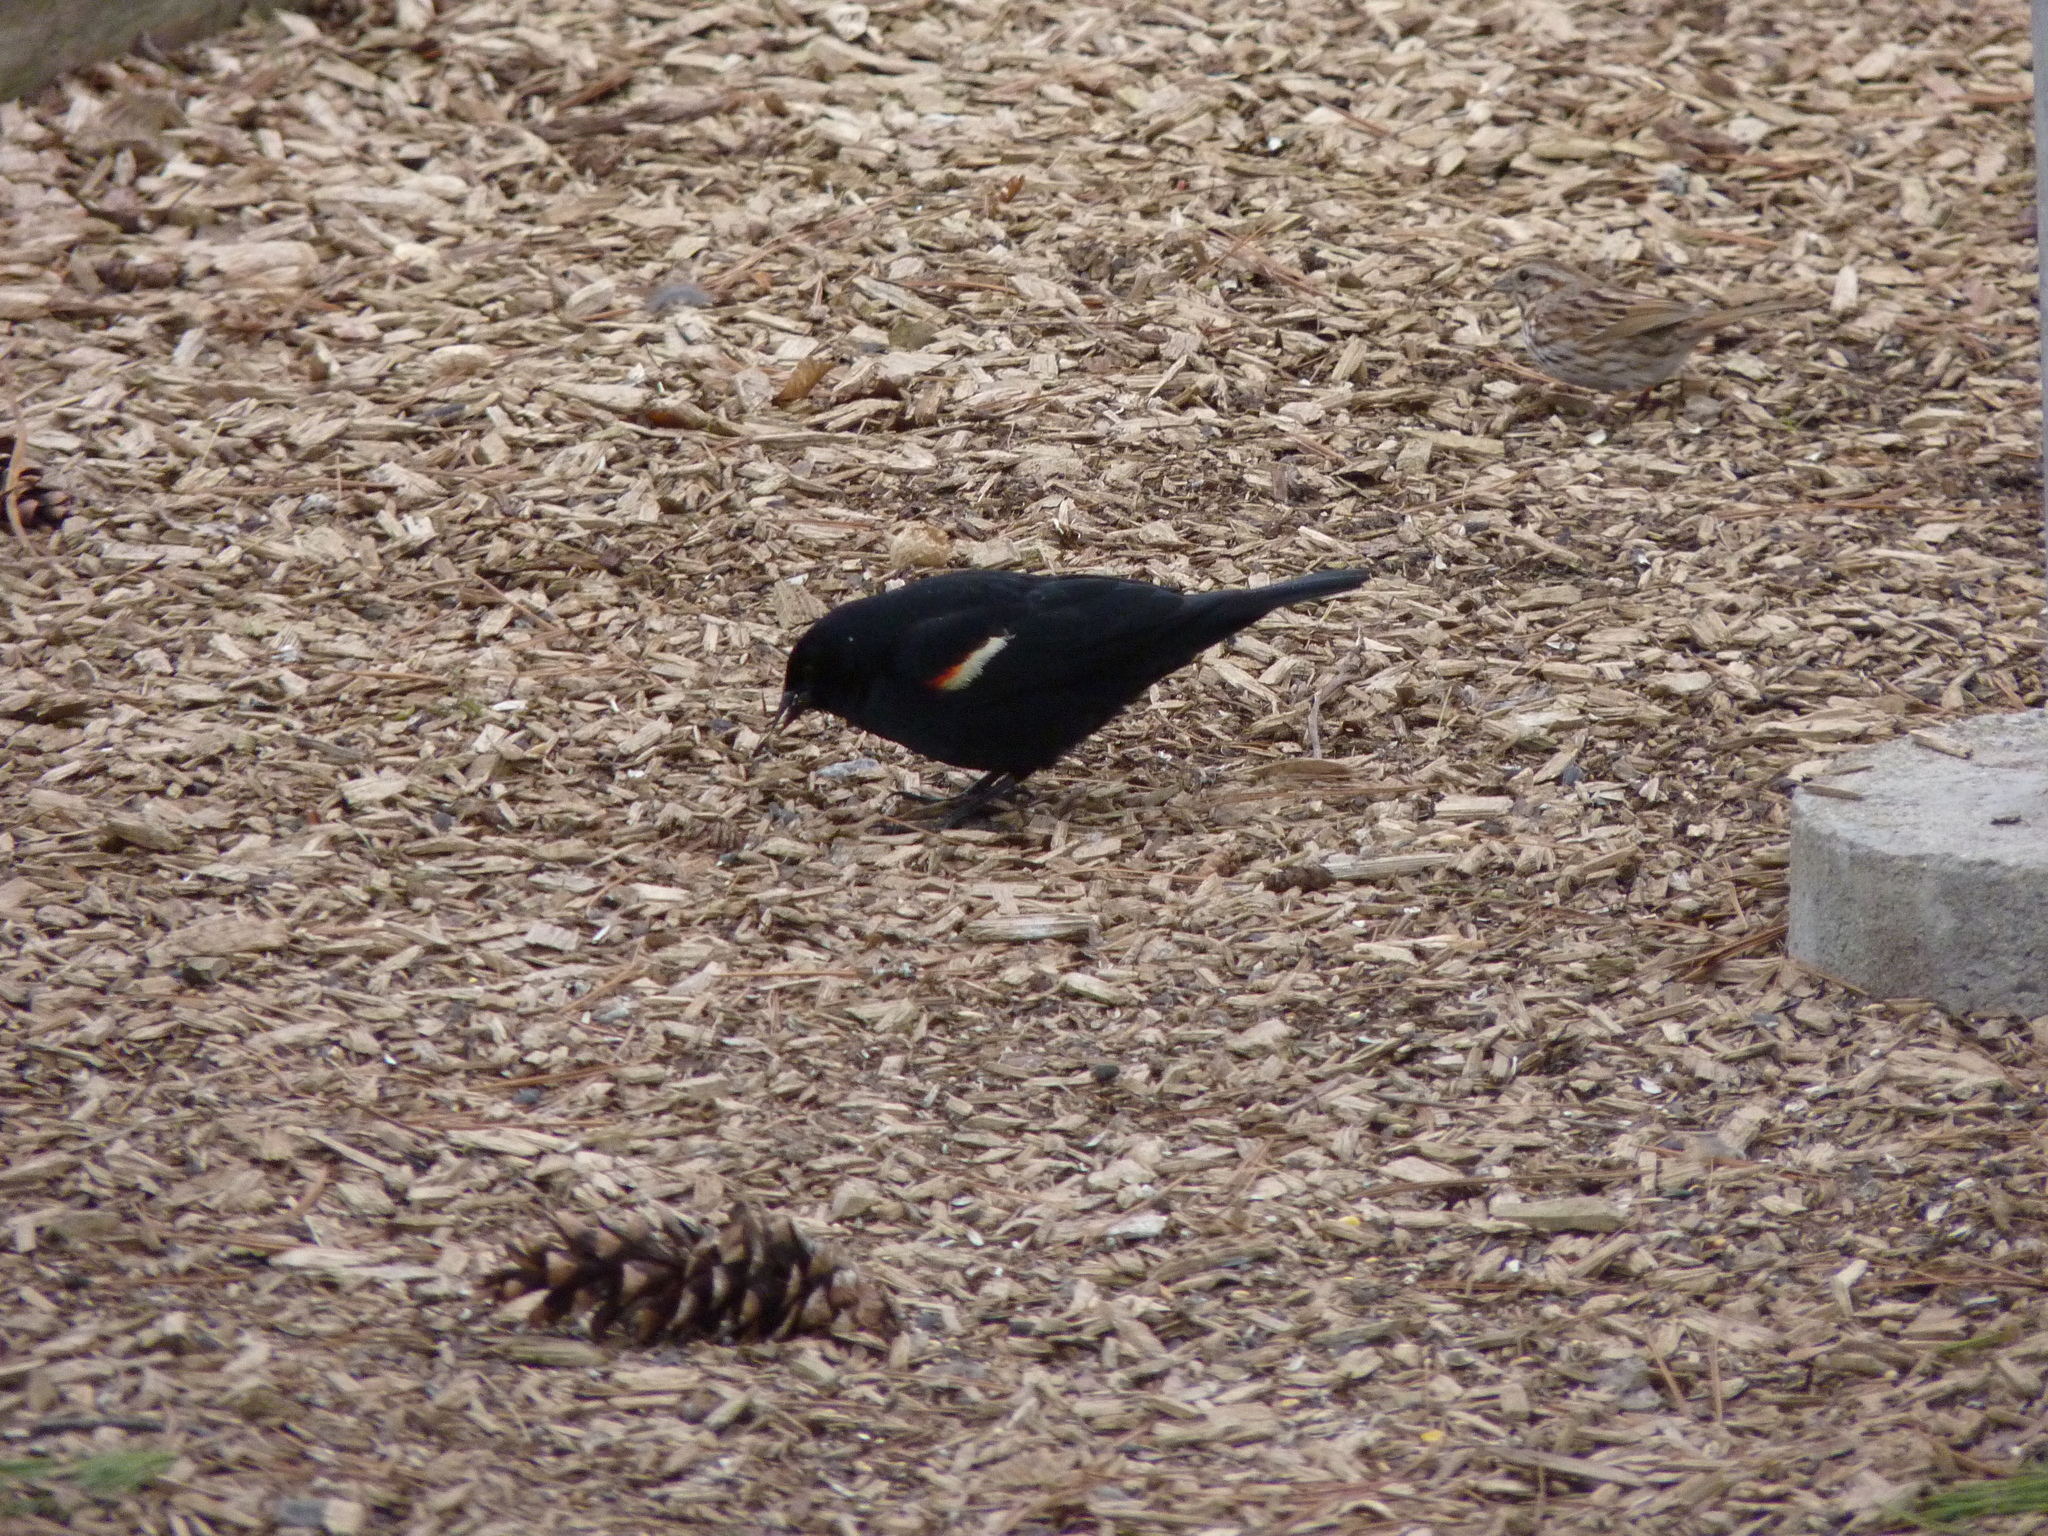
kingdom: Animalia
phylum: Chordata
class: Aves
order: Passeriformes
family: Icteridae
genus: Agelaius
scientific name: Agelaius phoeniceus
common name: Red-winged blackbird
